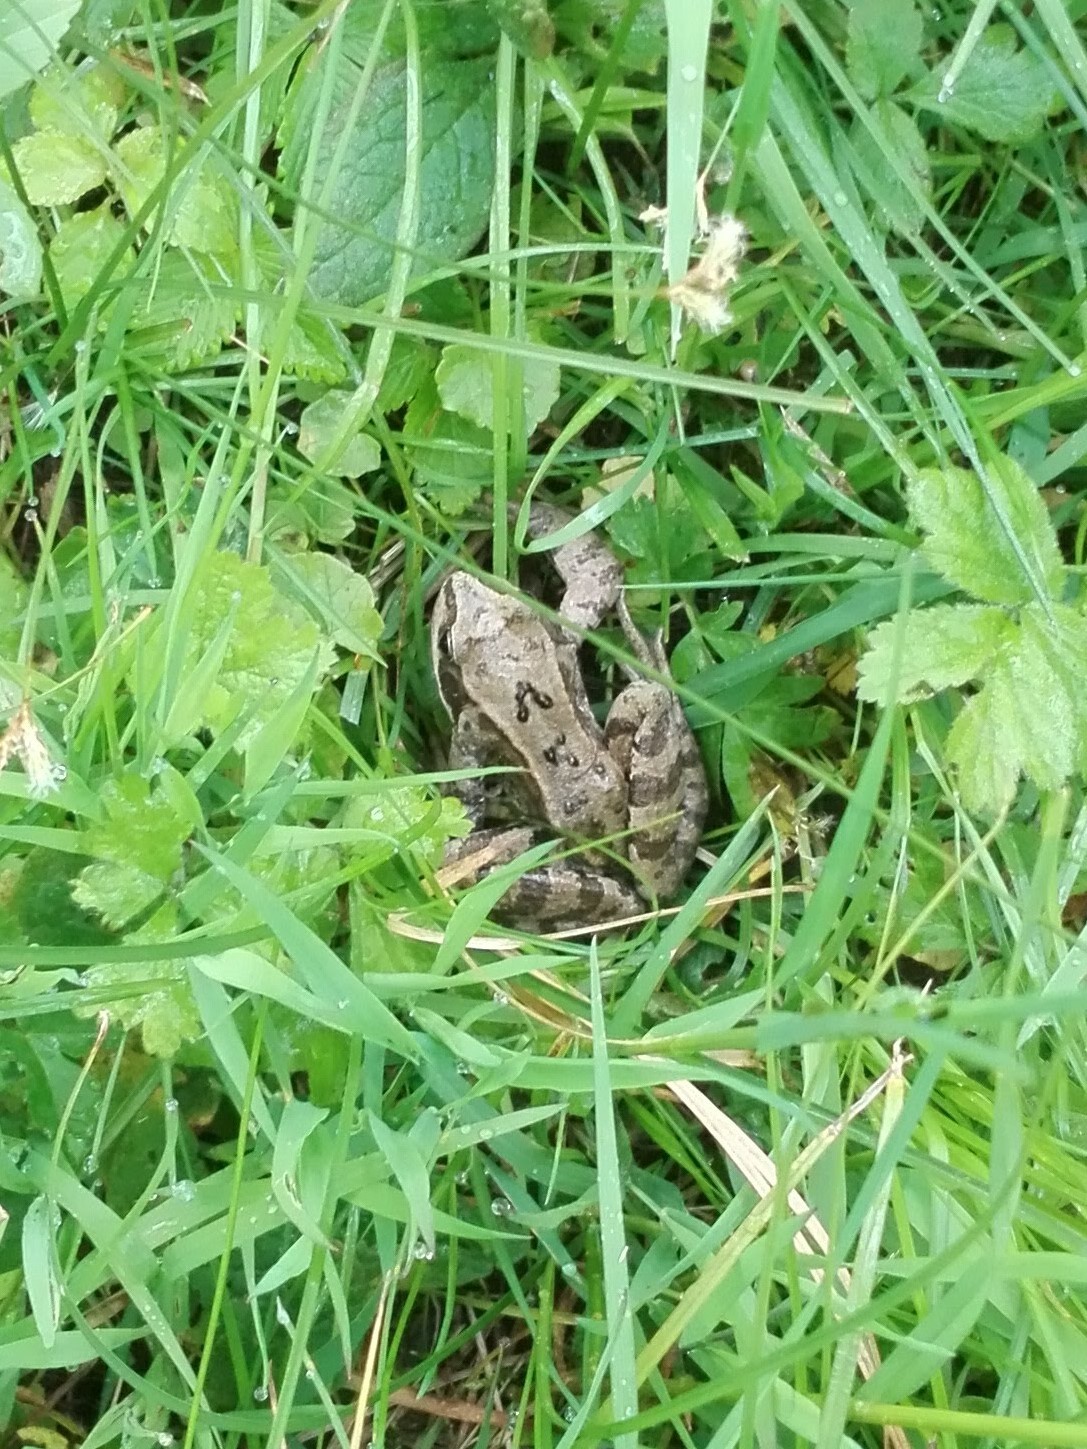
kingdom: Animalia
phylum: Chordata
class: Amphibia
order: Anura
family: Ranidae
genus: Rana
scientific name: Rana temporaria
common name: Common frog
